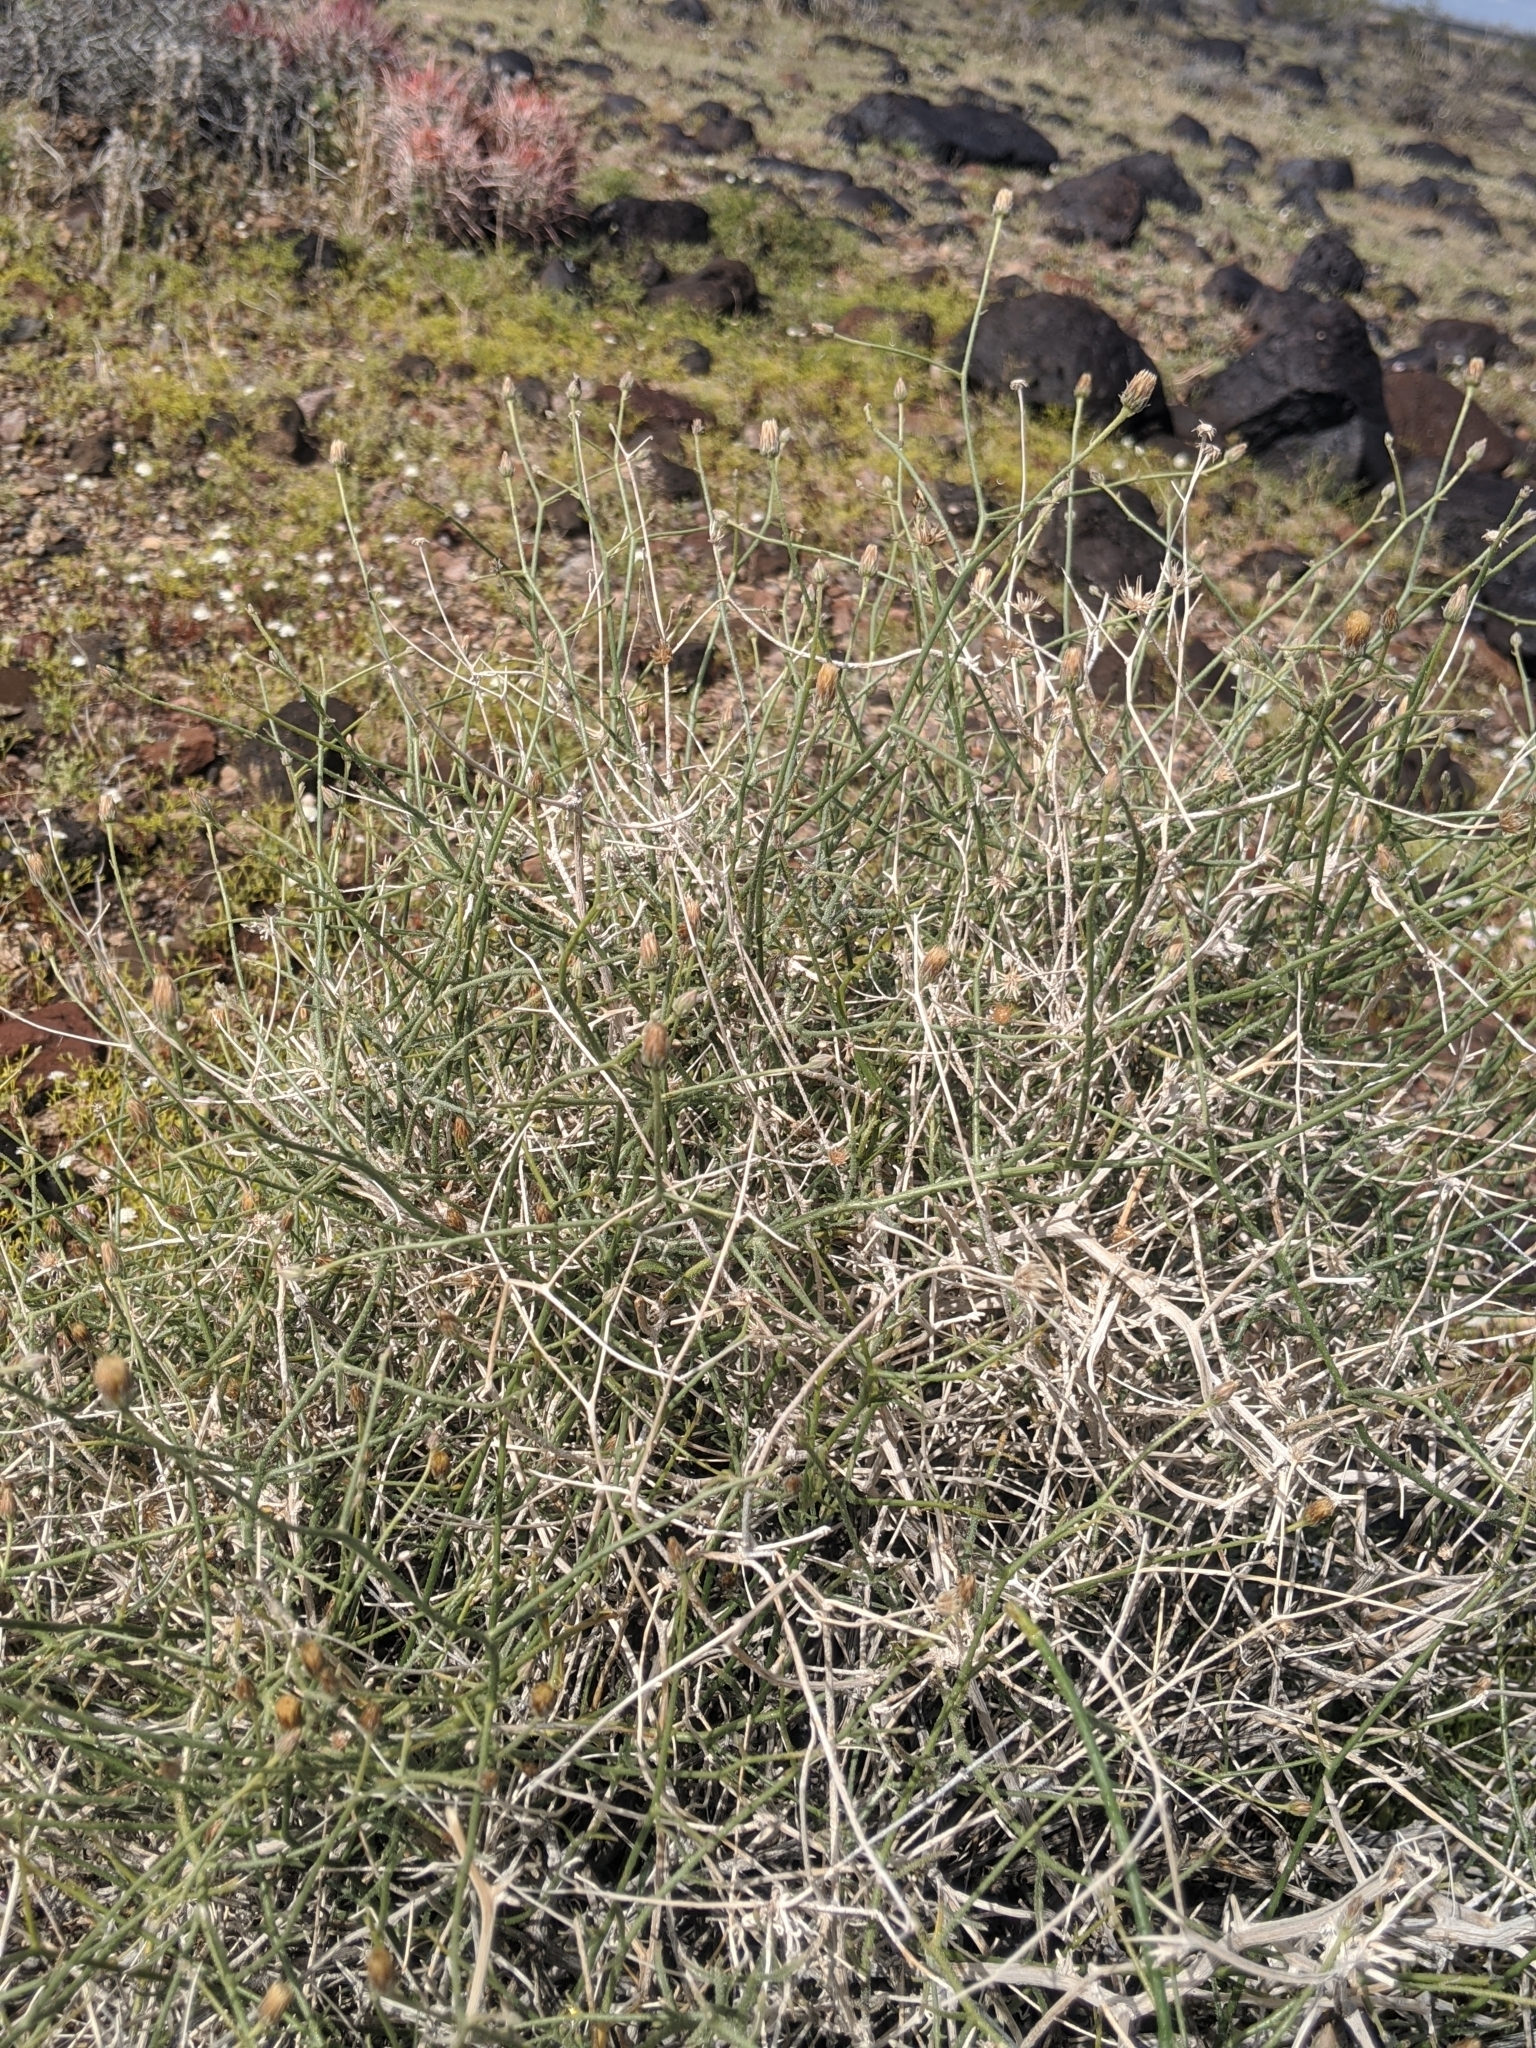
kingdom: Plantae
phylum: Tracheophyta
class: Magnoliopsida
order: Asterales
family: Asteraceae
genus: Bebbia
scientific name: Bebbia juncea
